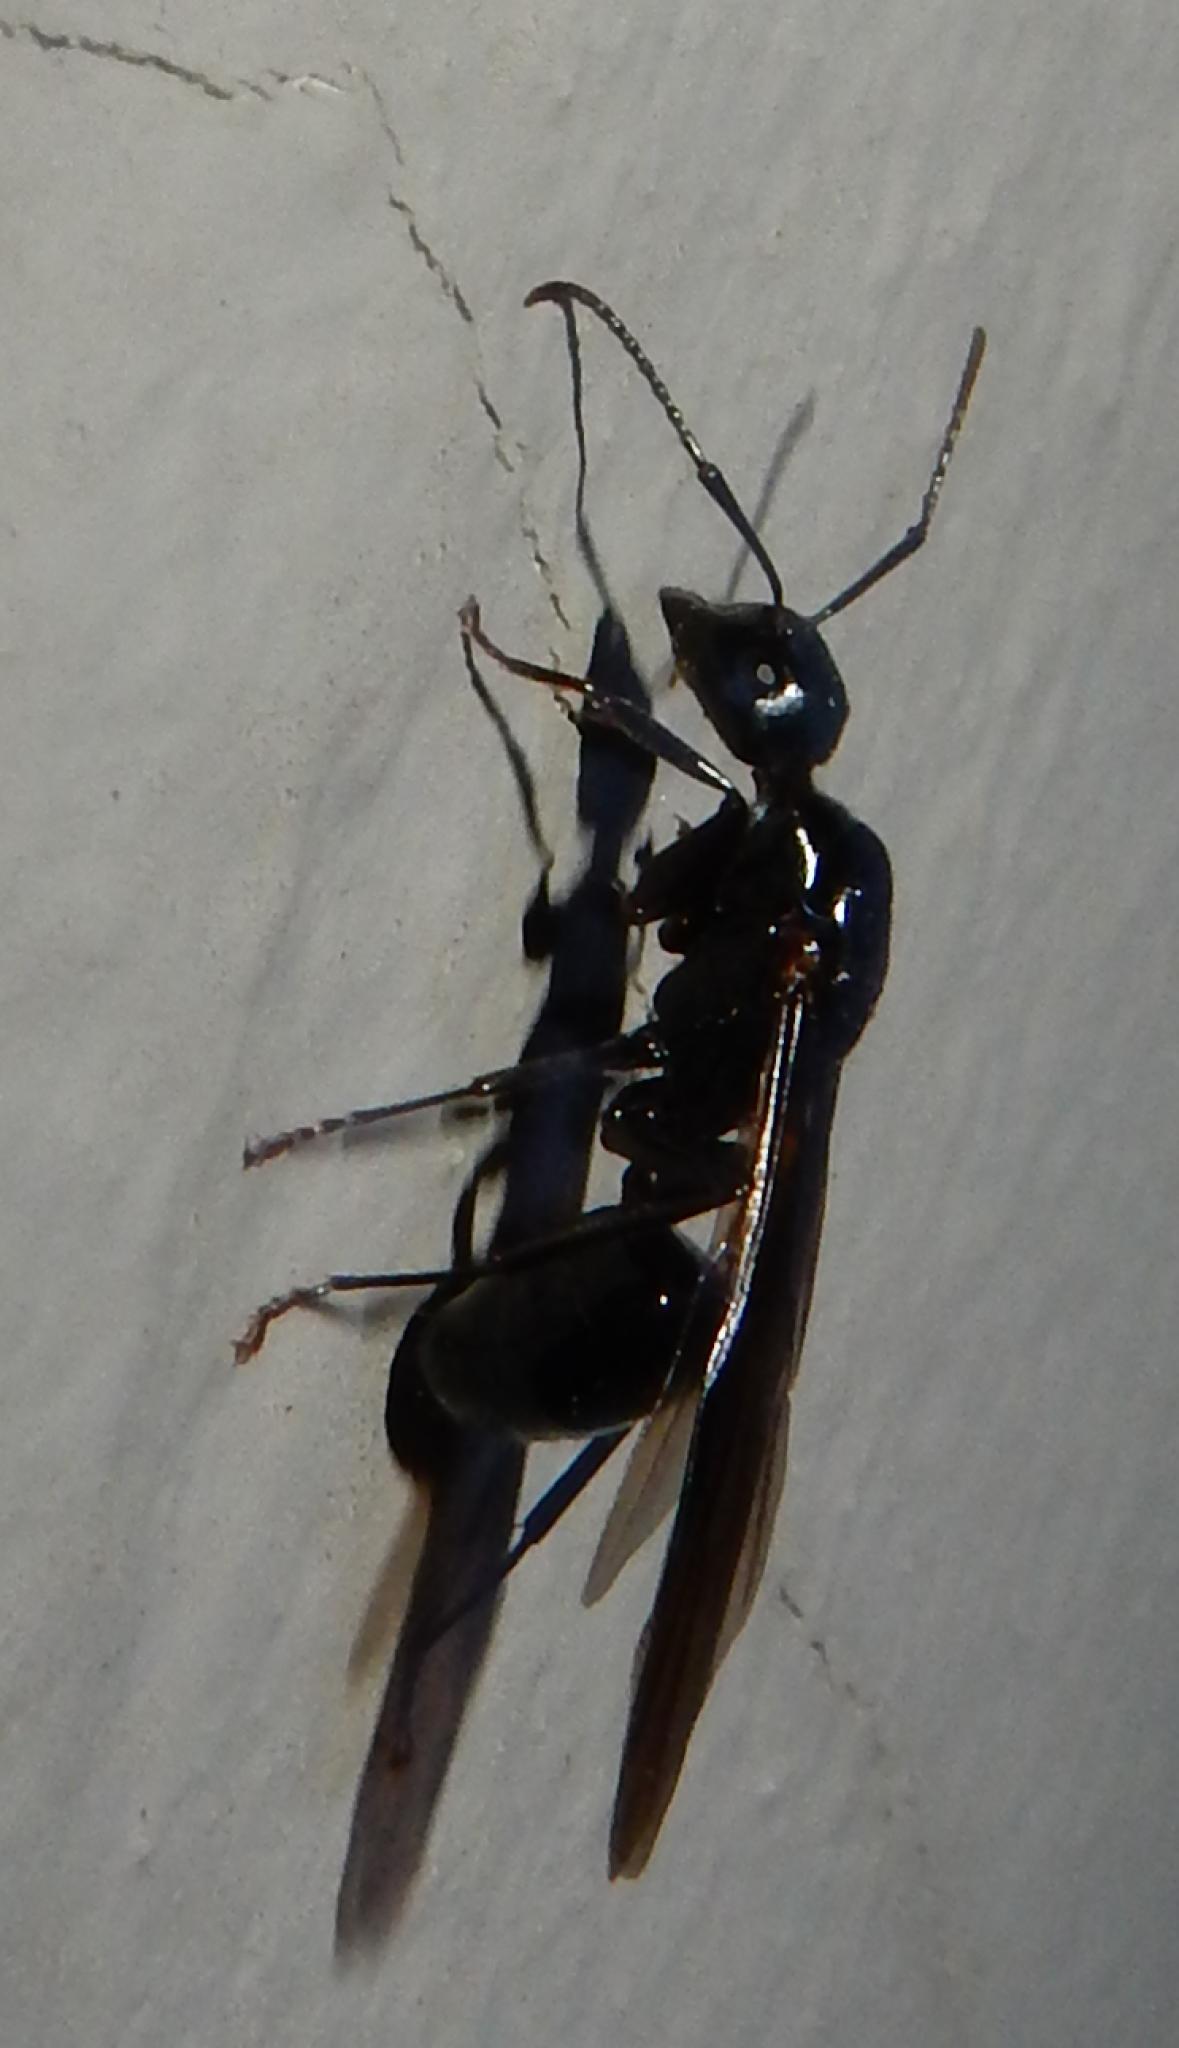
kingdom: Animalia
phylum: Arthropoda
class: Insecta
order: Hymenoptera
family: Formicidae
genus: Camponotus
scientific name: Camponotus werthi
